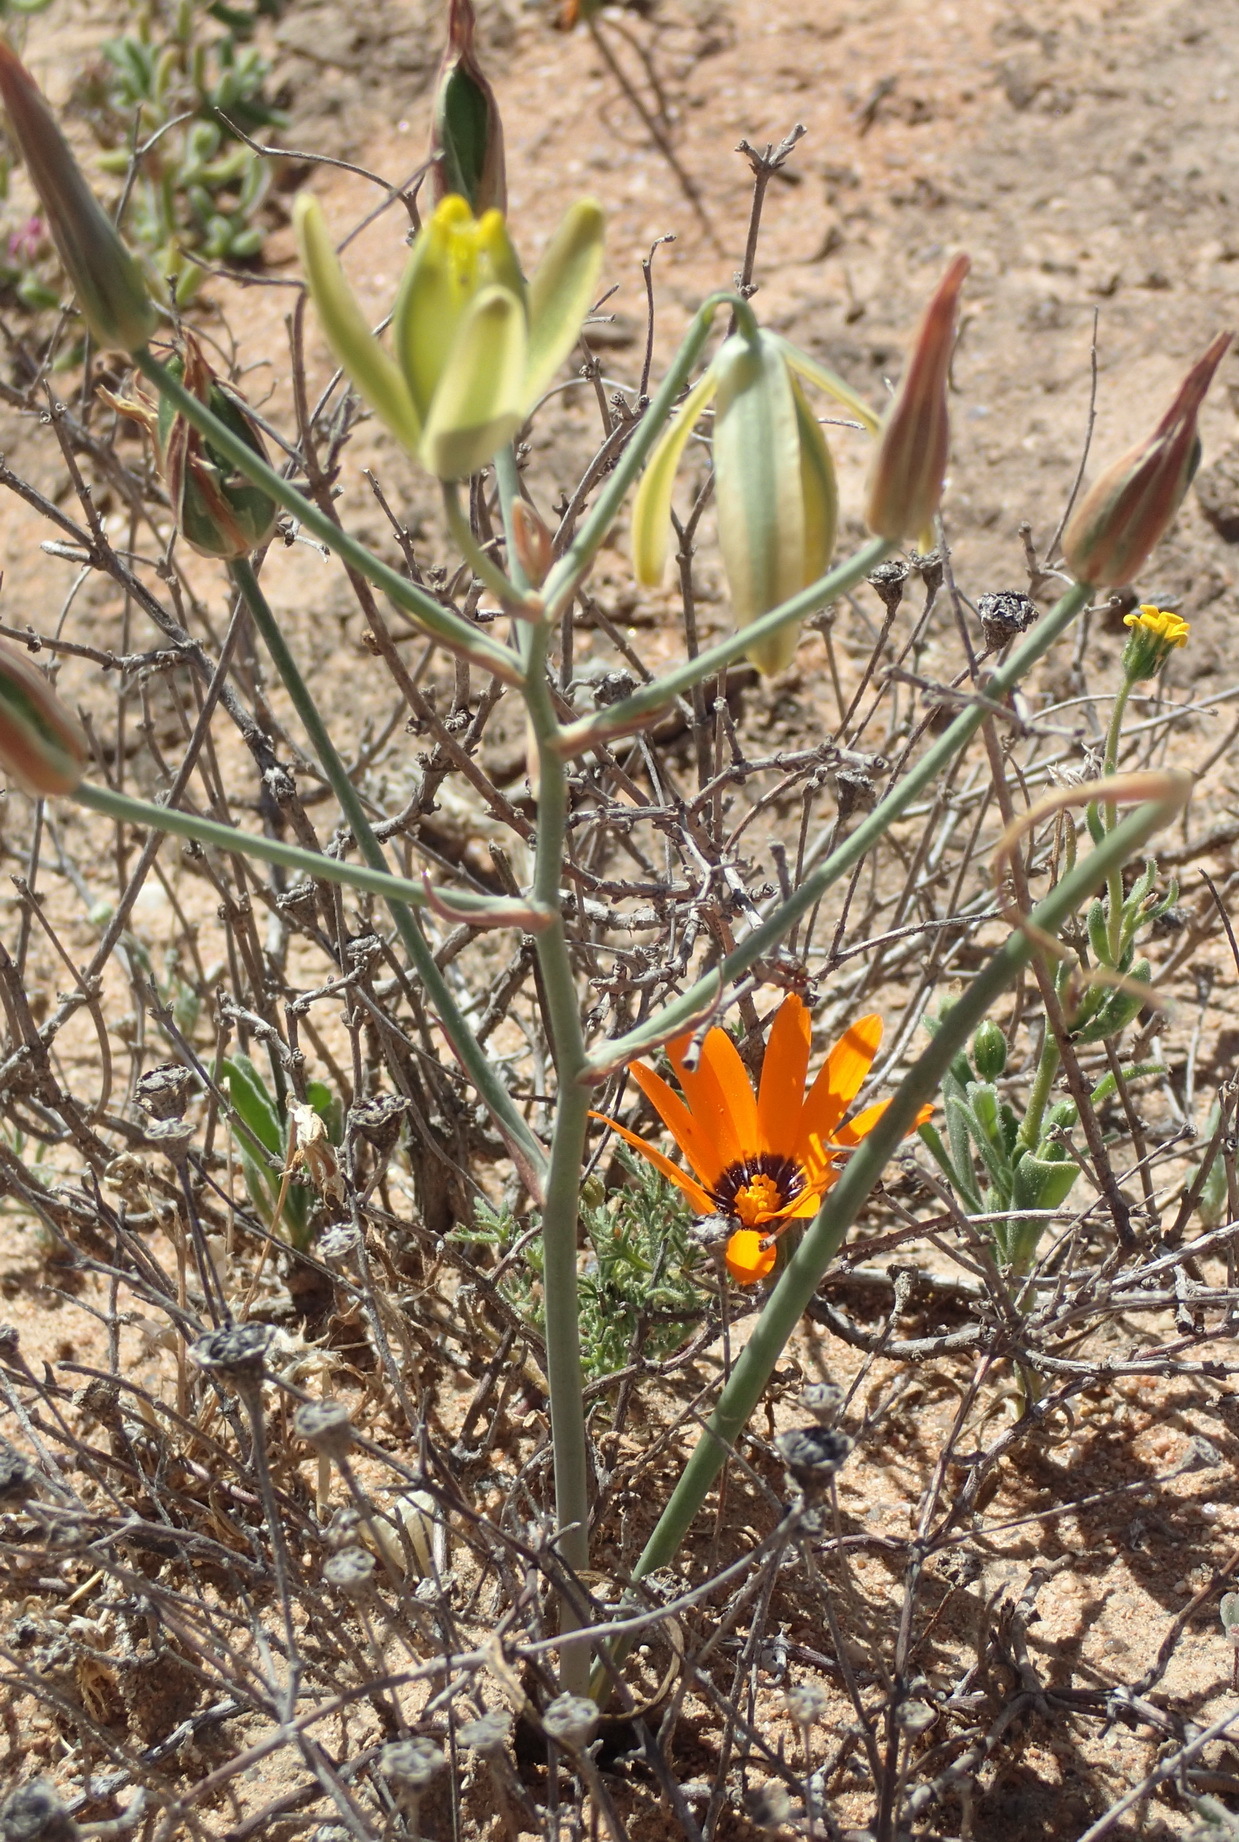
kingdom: Plantae
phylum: Tracheophyta
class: Liliopsida
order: Asparagales
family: Asparagaceae
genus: Albuca
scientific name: Albuca longipes
